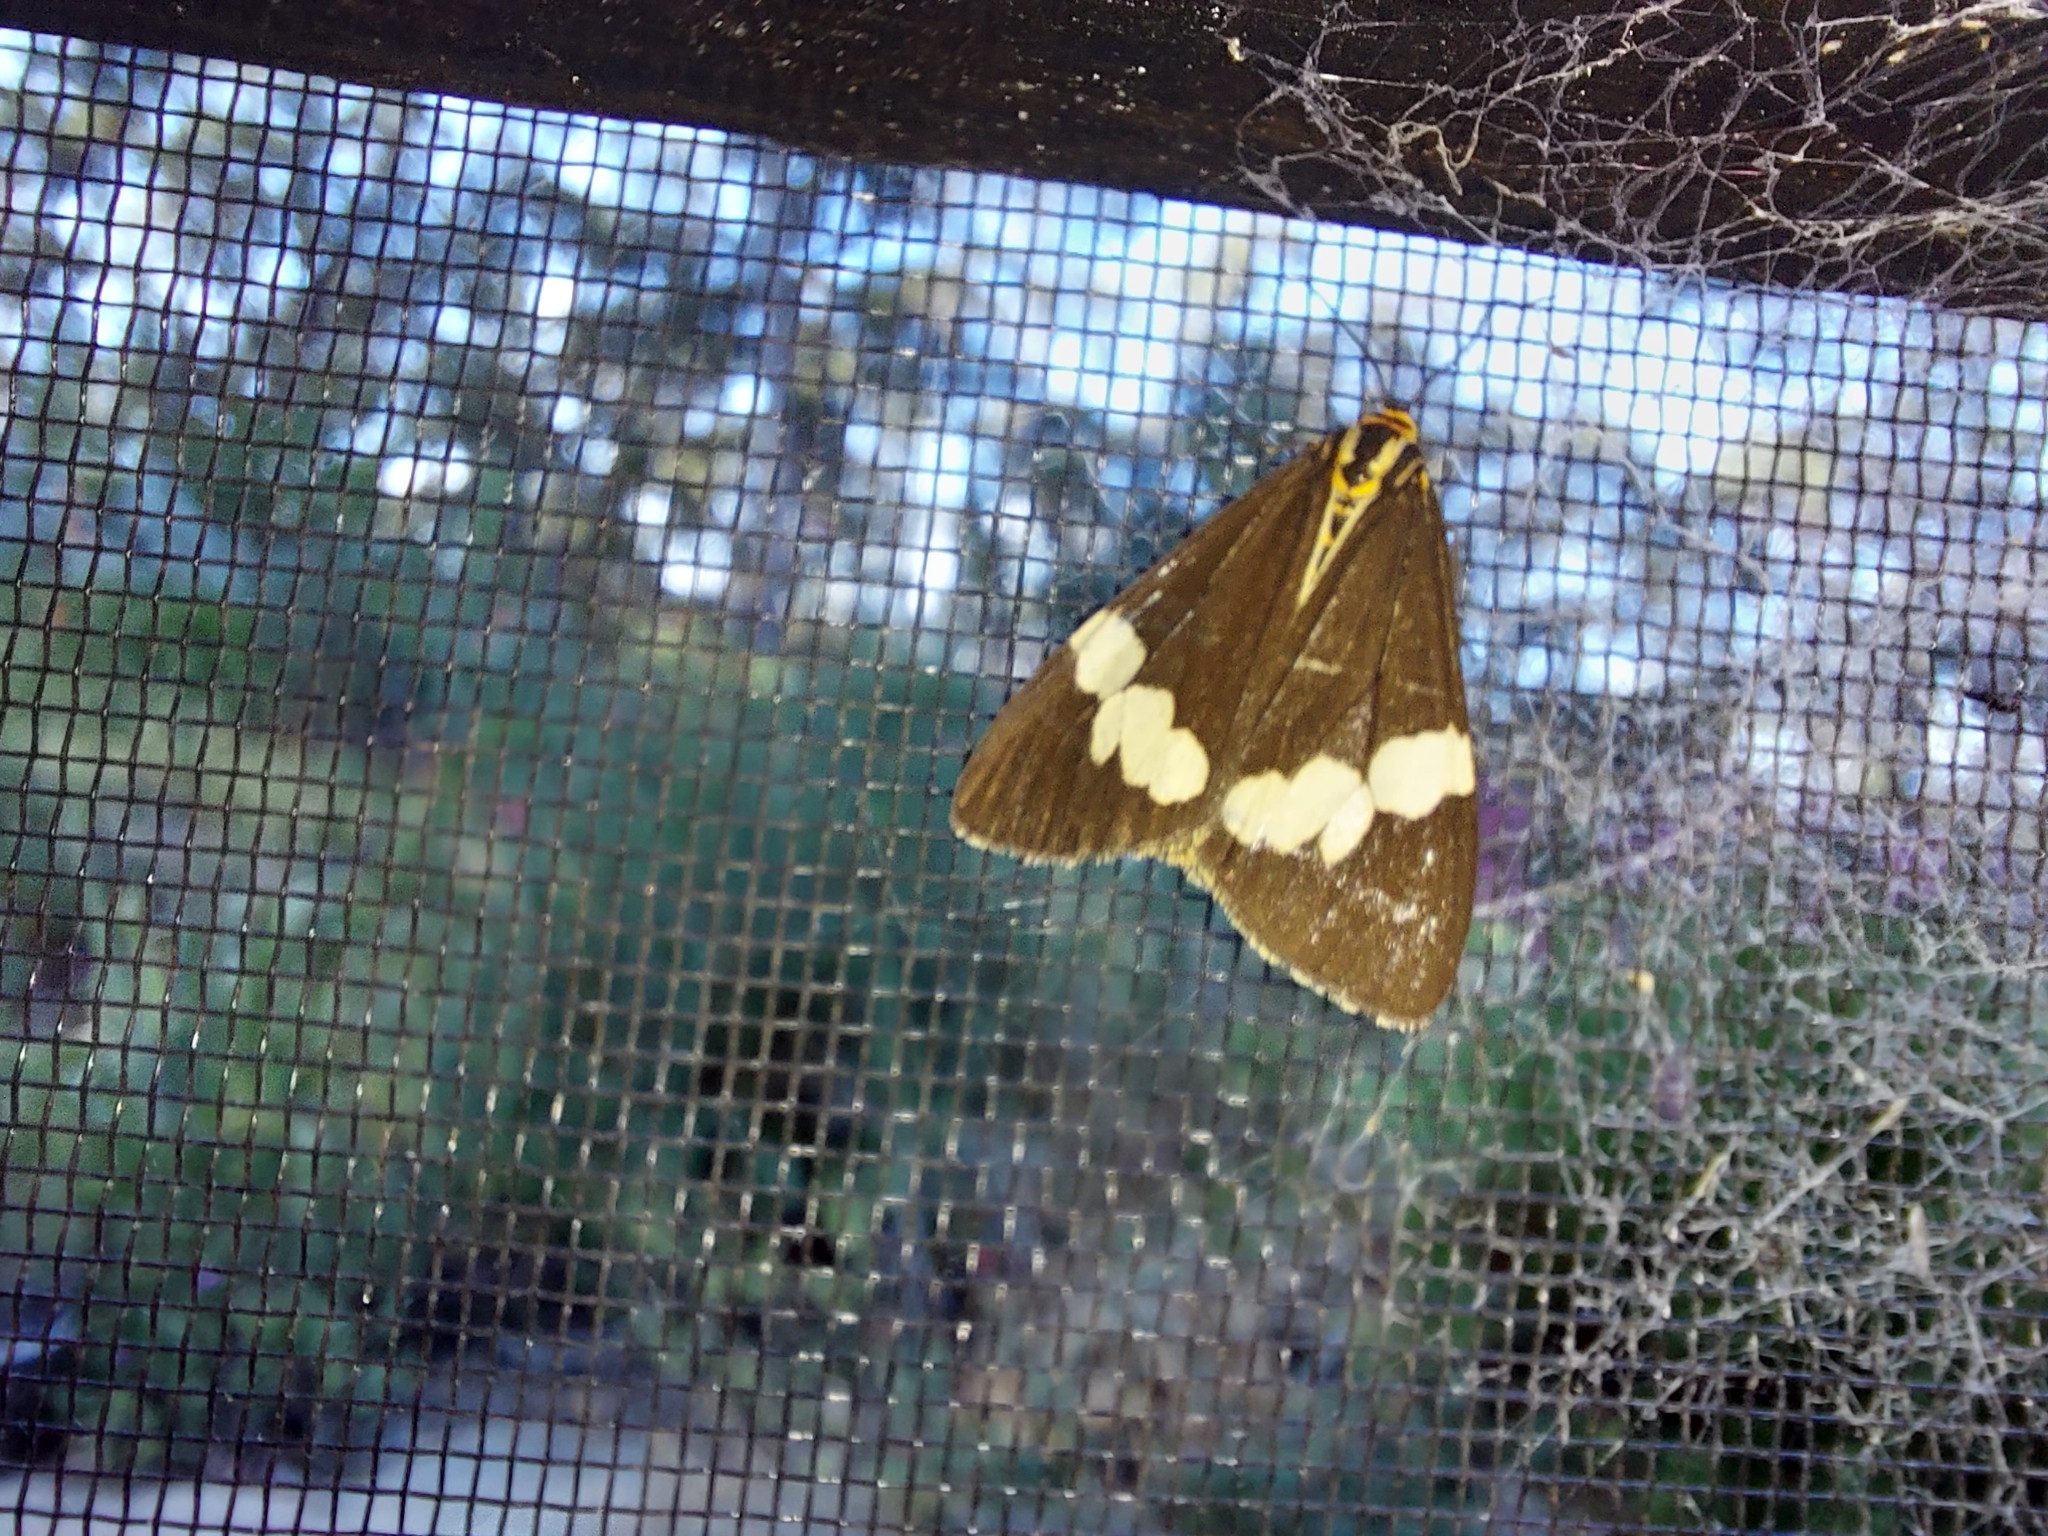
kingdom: Animalia
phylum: Arthropoda
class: Insecta
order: Lepidoptera
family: Erebidae
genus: Nyctemera
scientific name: Nyctemera amicus
